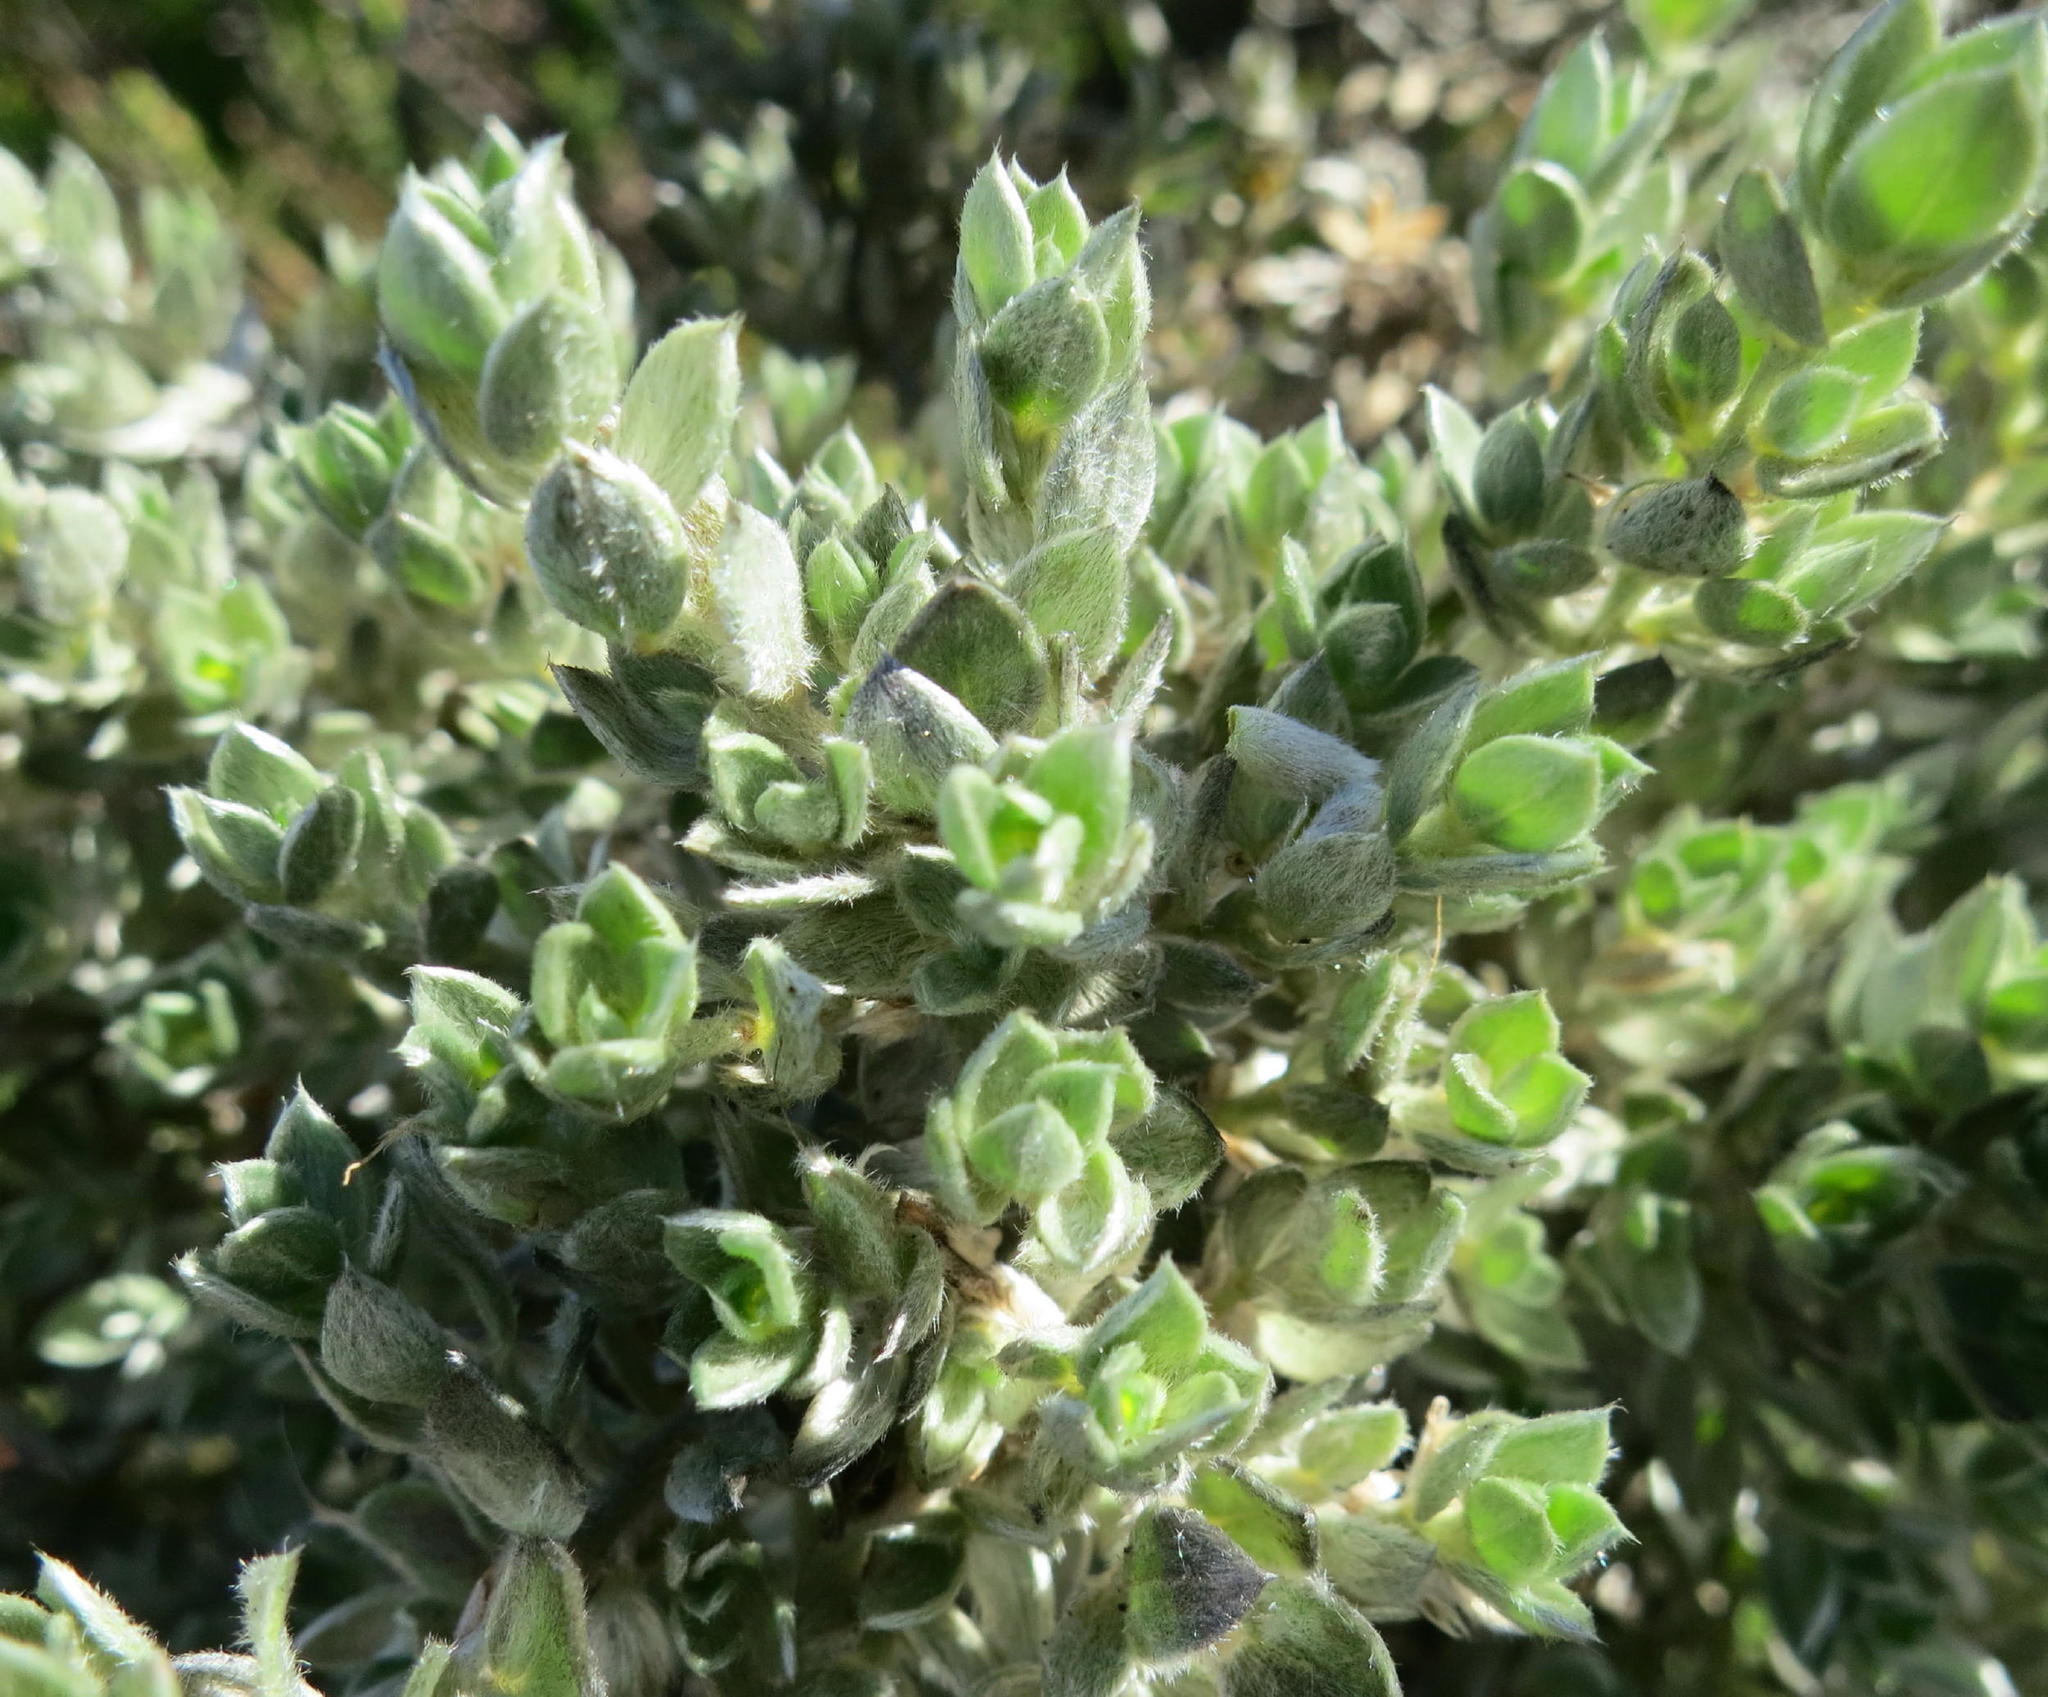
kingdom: Plantae
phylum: Tracheophyta
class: Magnoliopsida
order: Fabales
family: Fabaceae
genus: Amphithalea
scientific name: Amphithalea fourcadei
